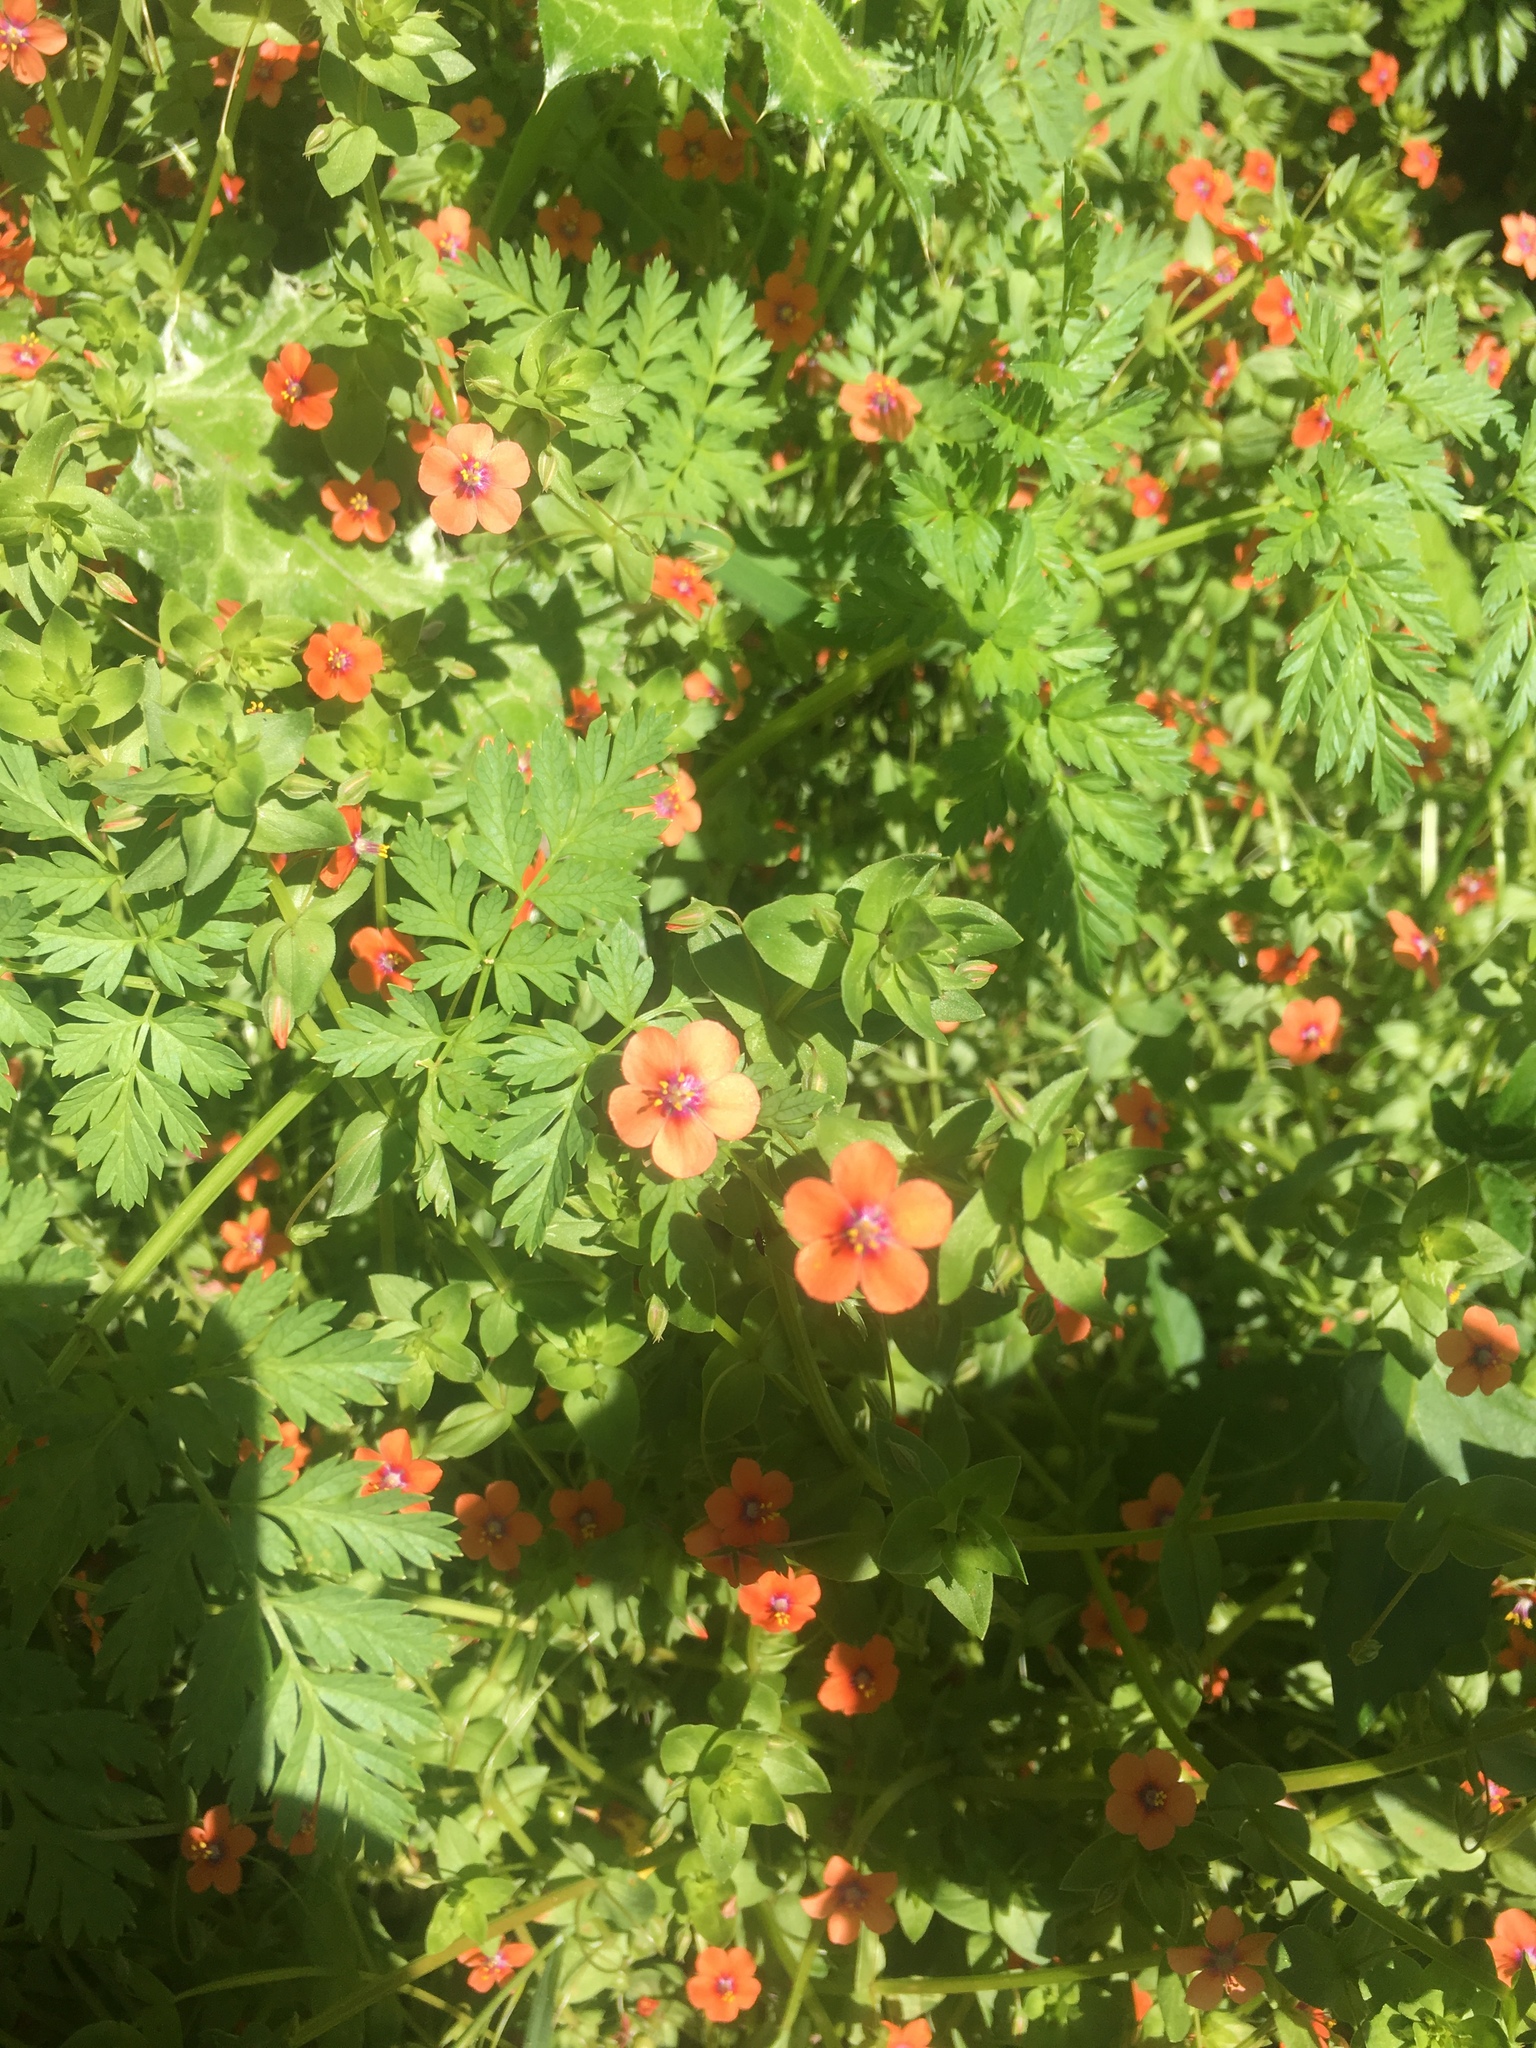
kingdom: Plantae
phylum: Tracheophyta
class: Magnoliopsida
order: Ericales
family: Primulaceae
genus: Lysimachia
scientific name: Lysimachia arvensis
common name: Scarlet pimpernel
